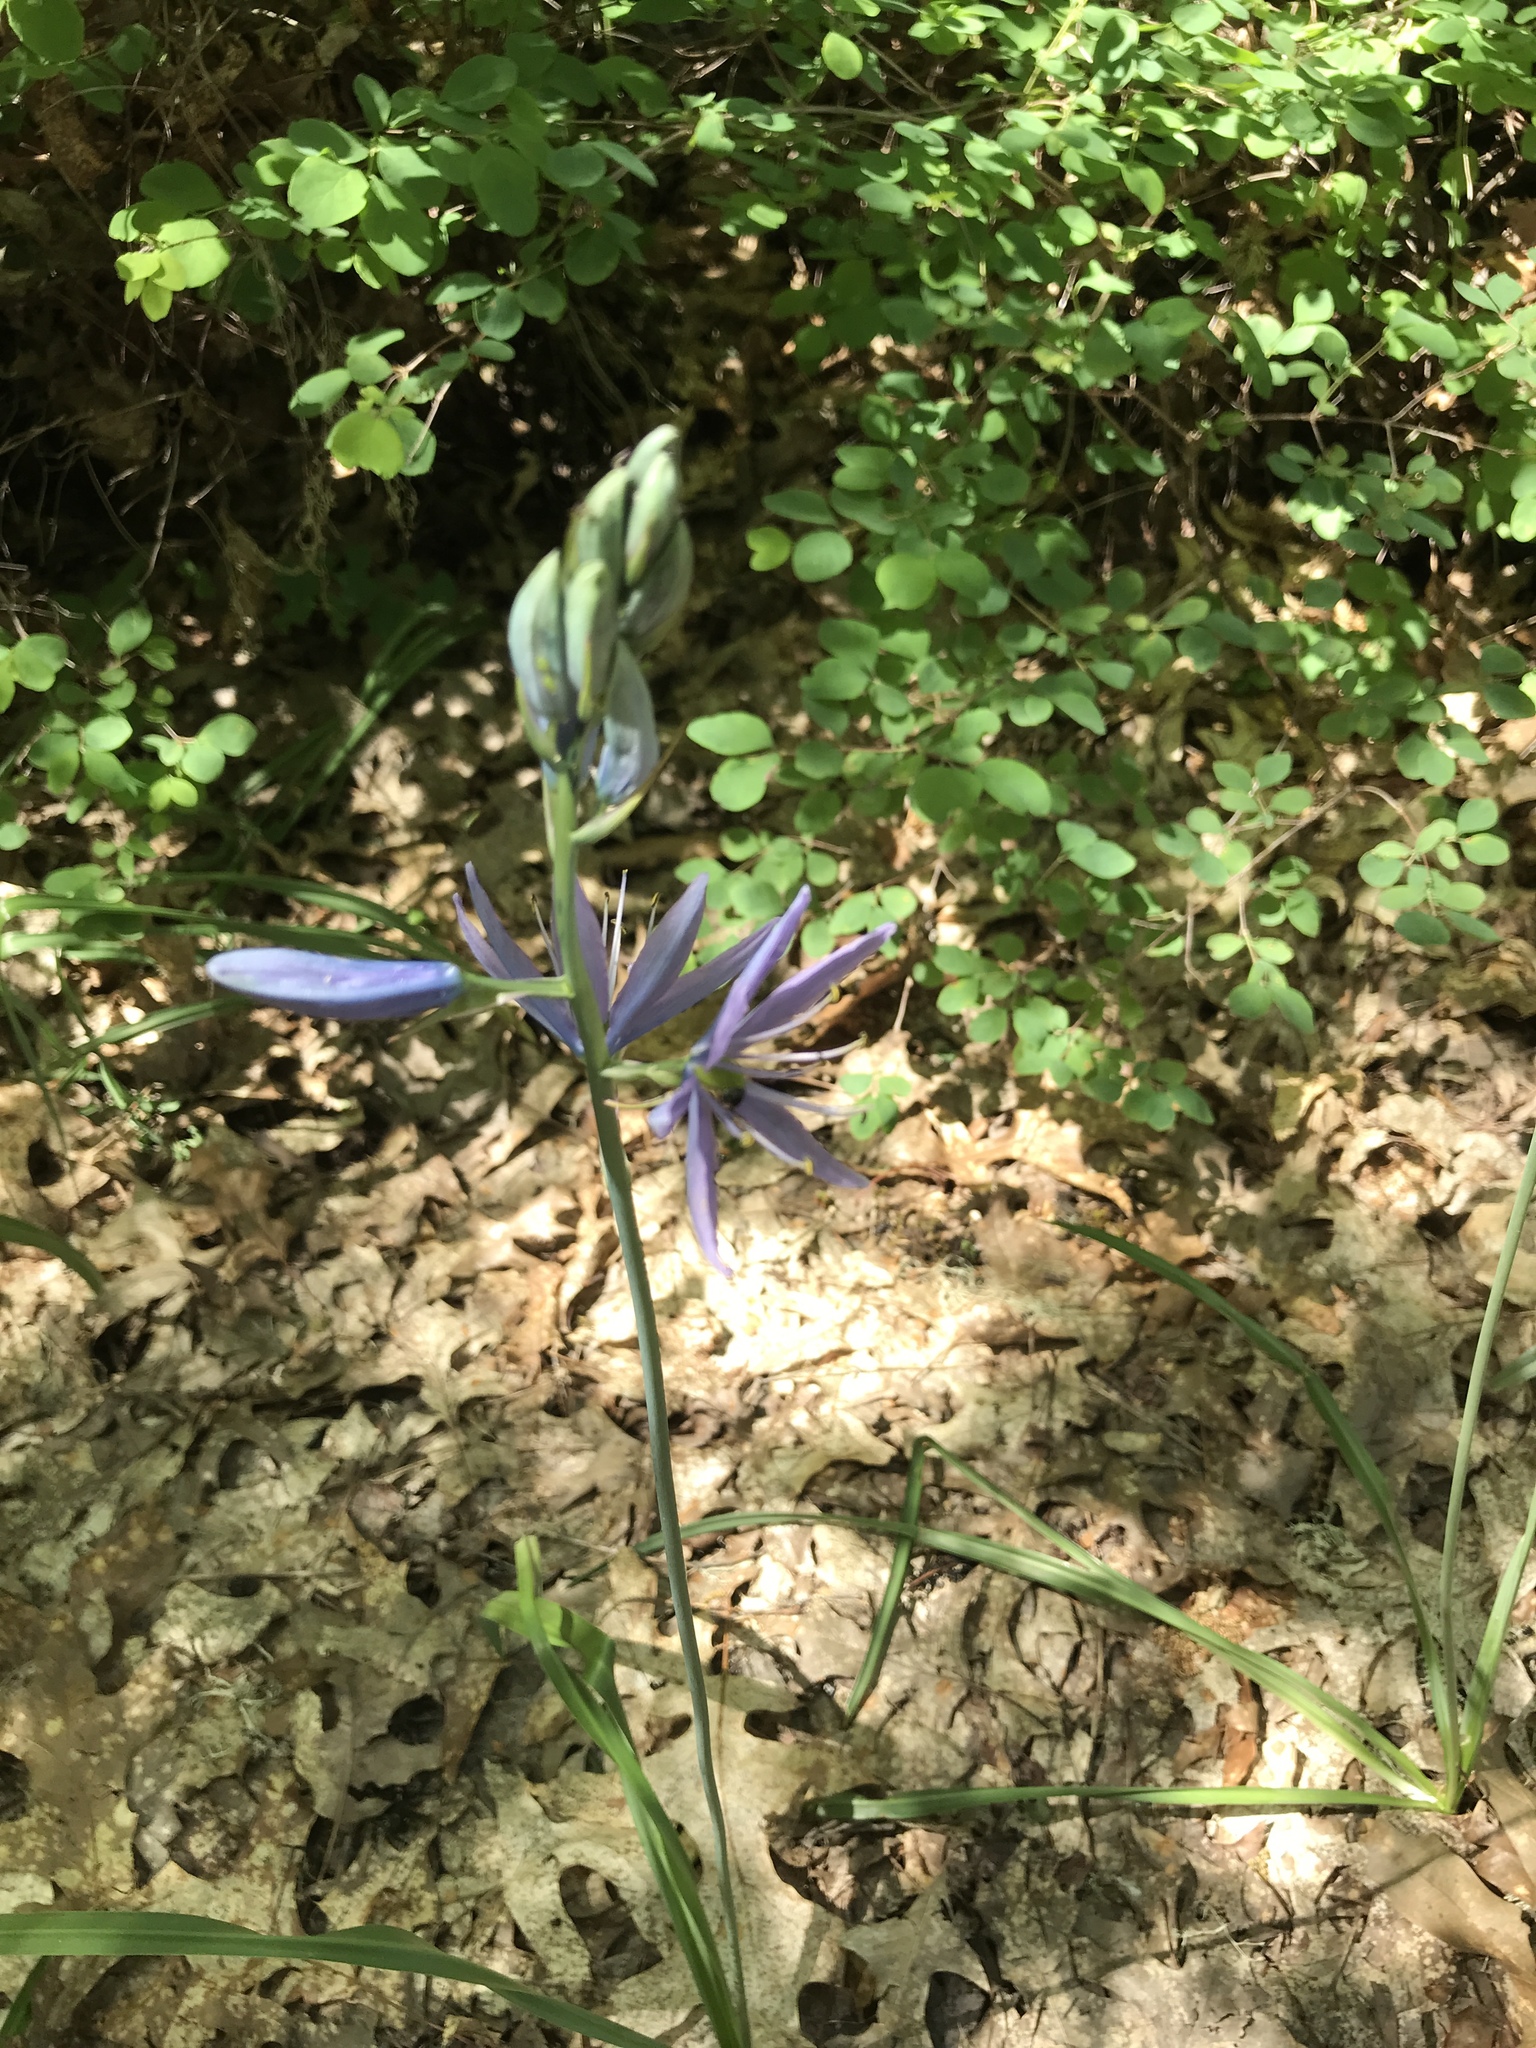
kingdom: Plantae
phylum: Tracheophyta
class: Liliopsida
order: Asparagales
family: Asparagaceae
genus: Camassia
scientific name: Camassia quamash
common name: Common camas
